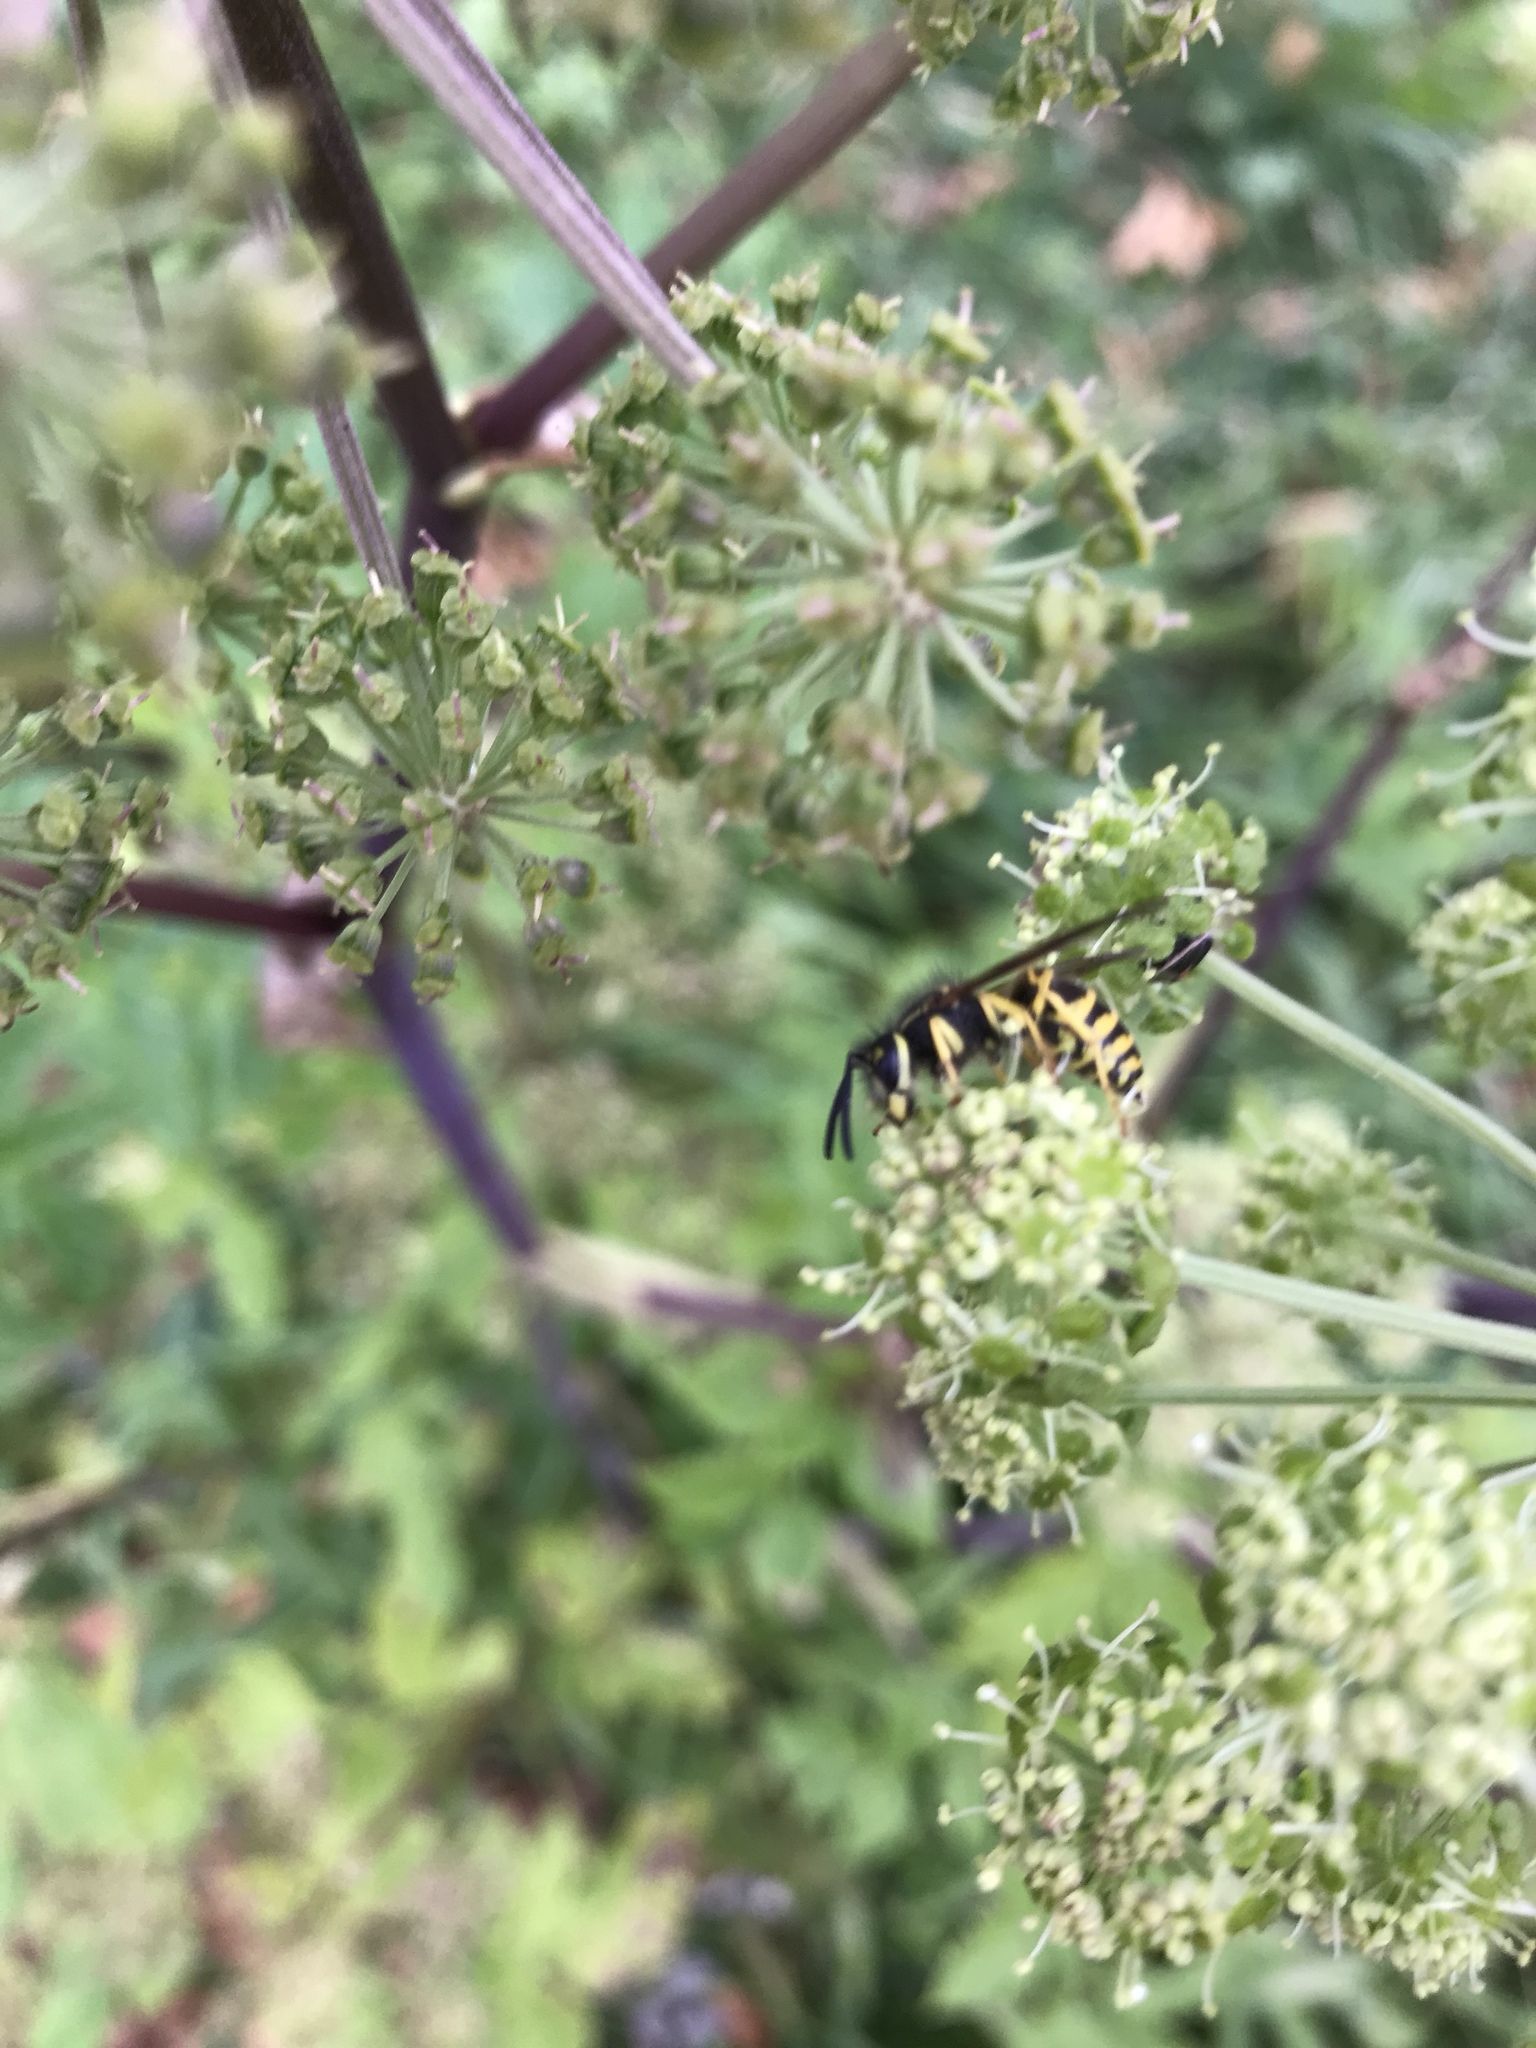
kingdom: Animalia
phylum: Arthropoda
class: Insecta
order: Hymenoptera
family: Vespidae
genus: Vespula
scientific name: Vespula maculifrons
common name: Eastern yellowjacket
